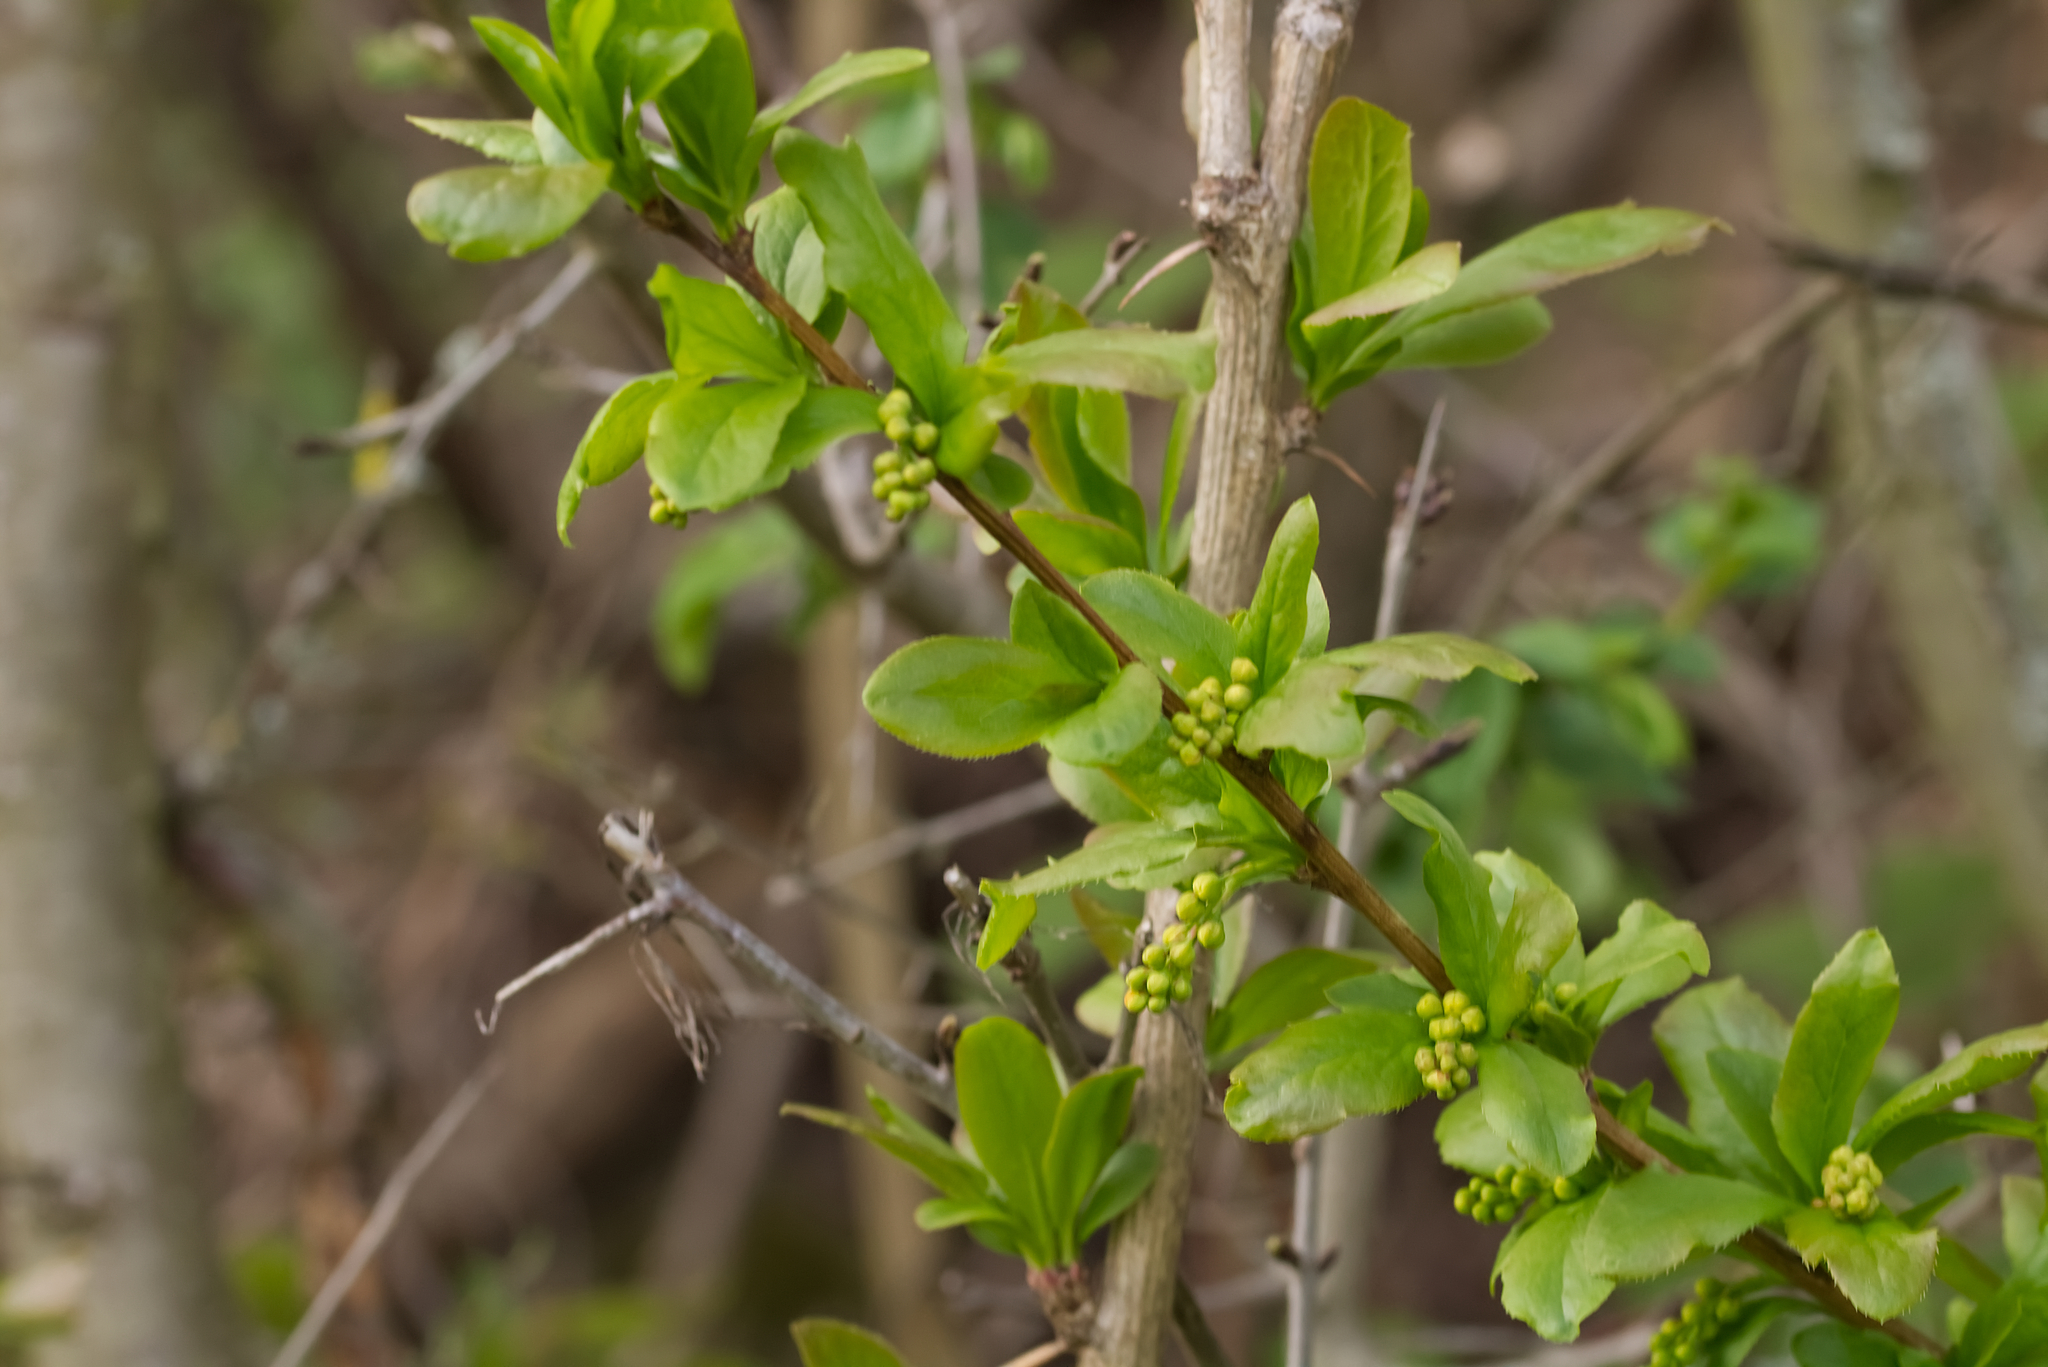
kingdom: Plantae
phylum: Tracheophyta
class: Magnoliopsida
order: Ranunculales
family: Berberidaceae
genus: Berberis
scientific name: Berberis vulgaris
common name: Barberry
